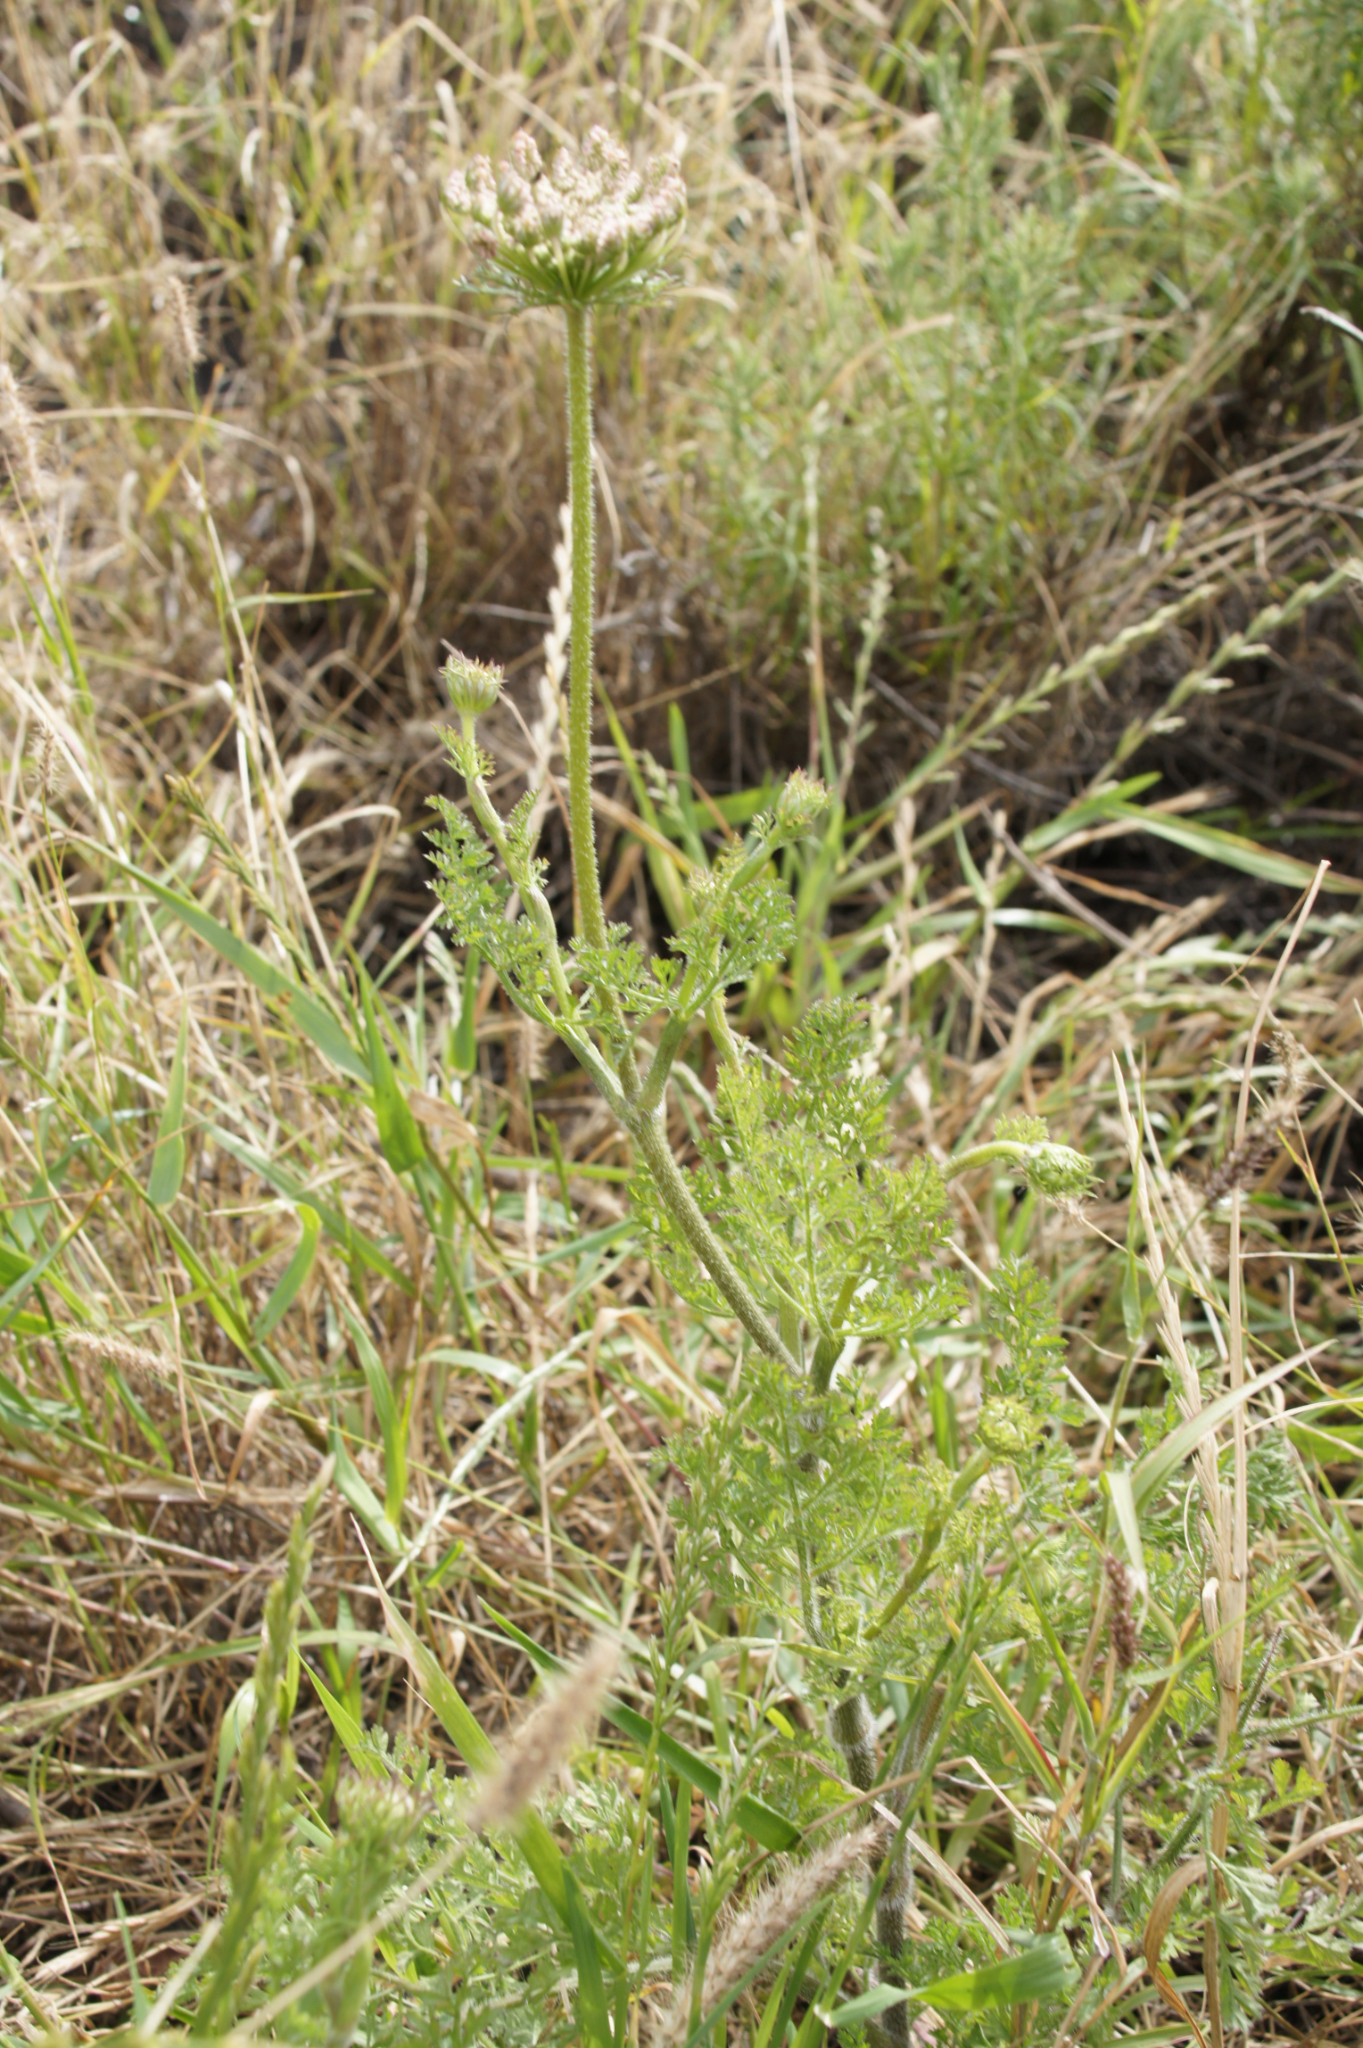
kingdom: Plantae
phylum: Tracheophyta
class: Magnoliopsida
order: Apiales
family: Apiaceae
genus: Daucus
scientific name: Daucus carota
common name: Wild carrot
